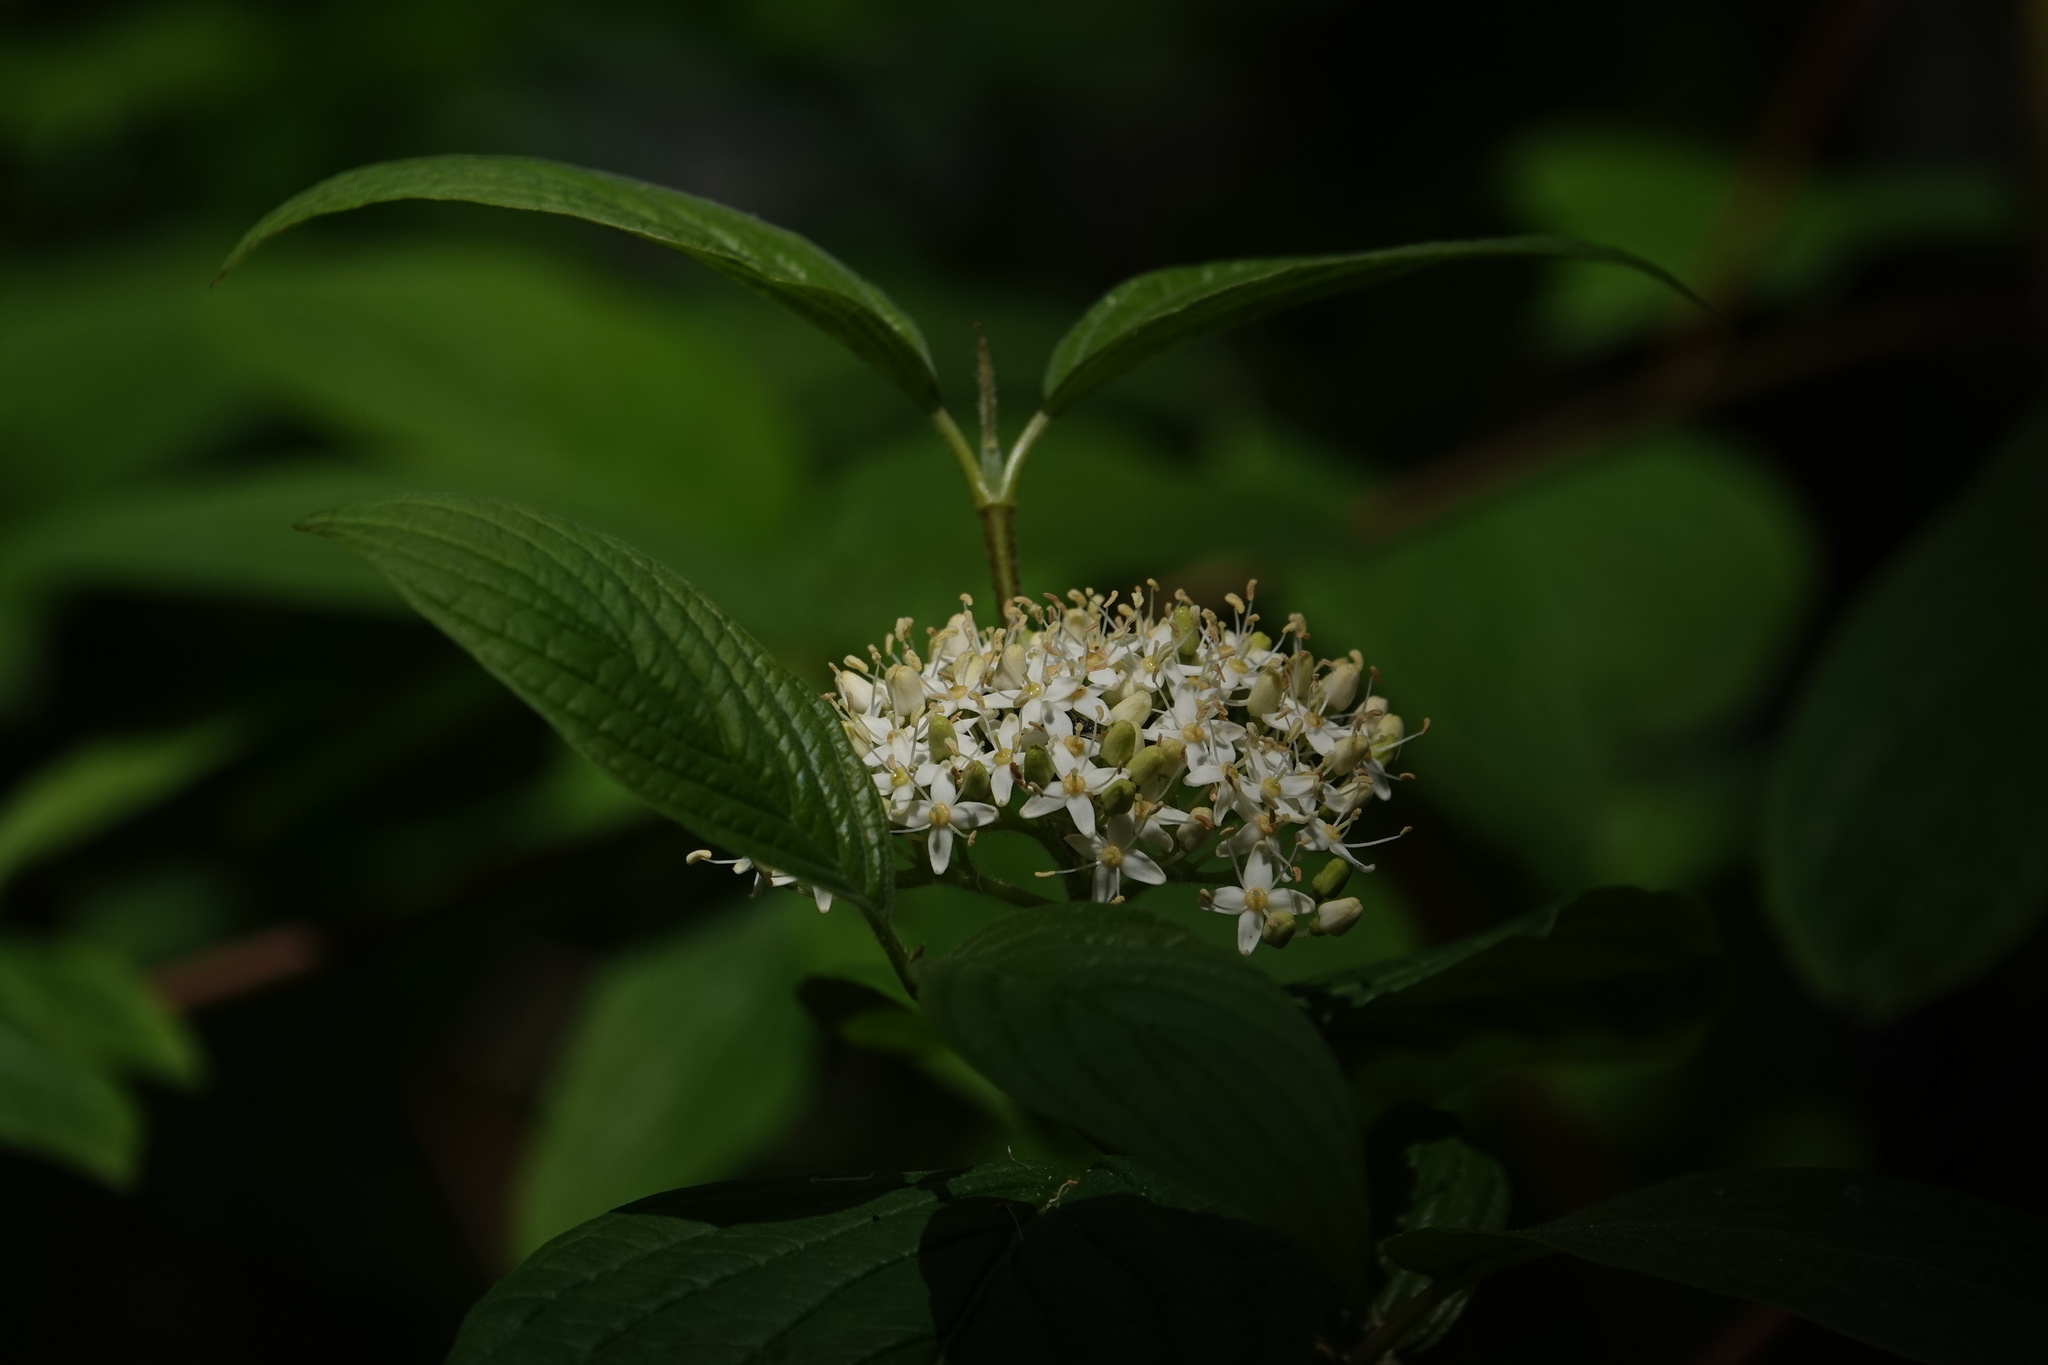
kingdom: Plantae
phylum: Tracheophyta
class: Magnoliopsida
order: Cornales
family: Cornaceae
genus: Cornus
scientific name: Cornus sericea
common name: Red-osier dogwood
